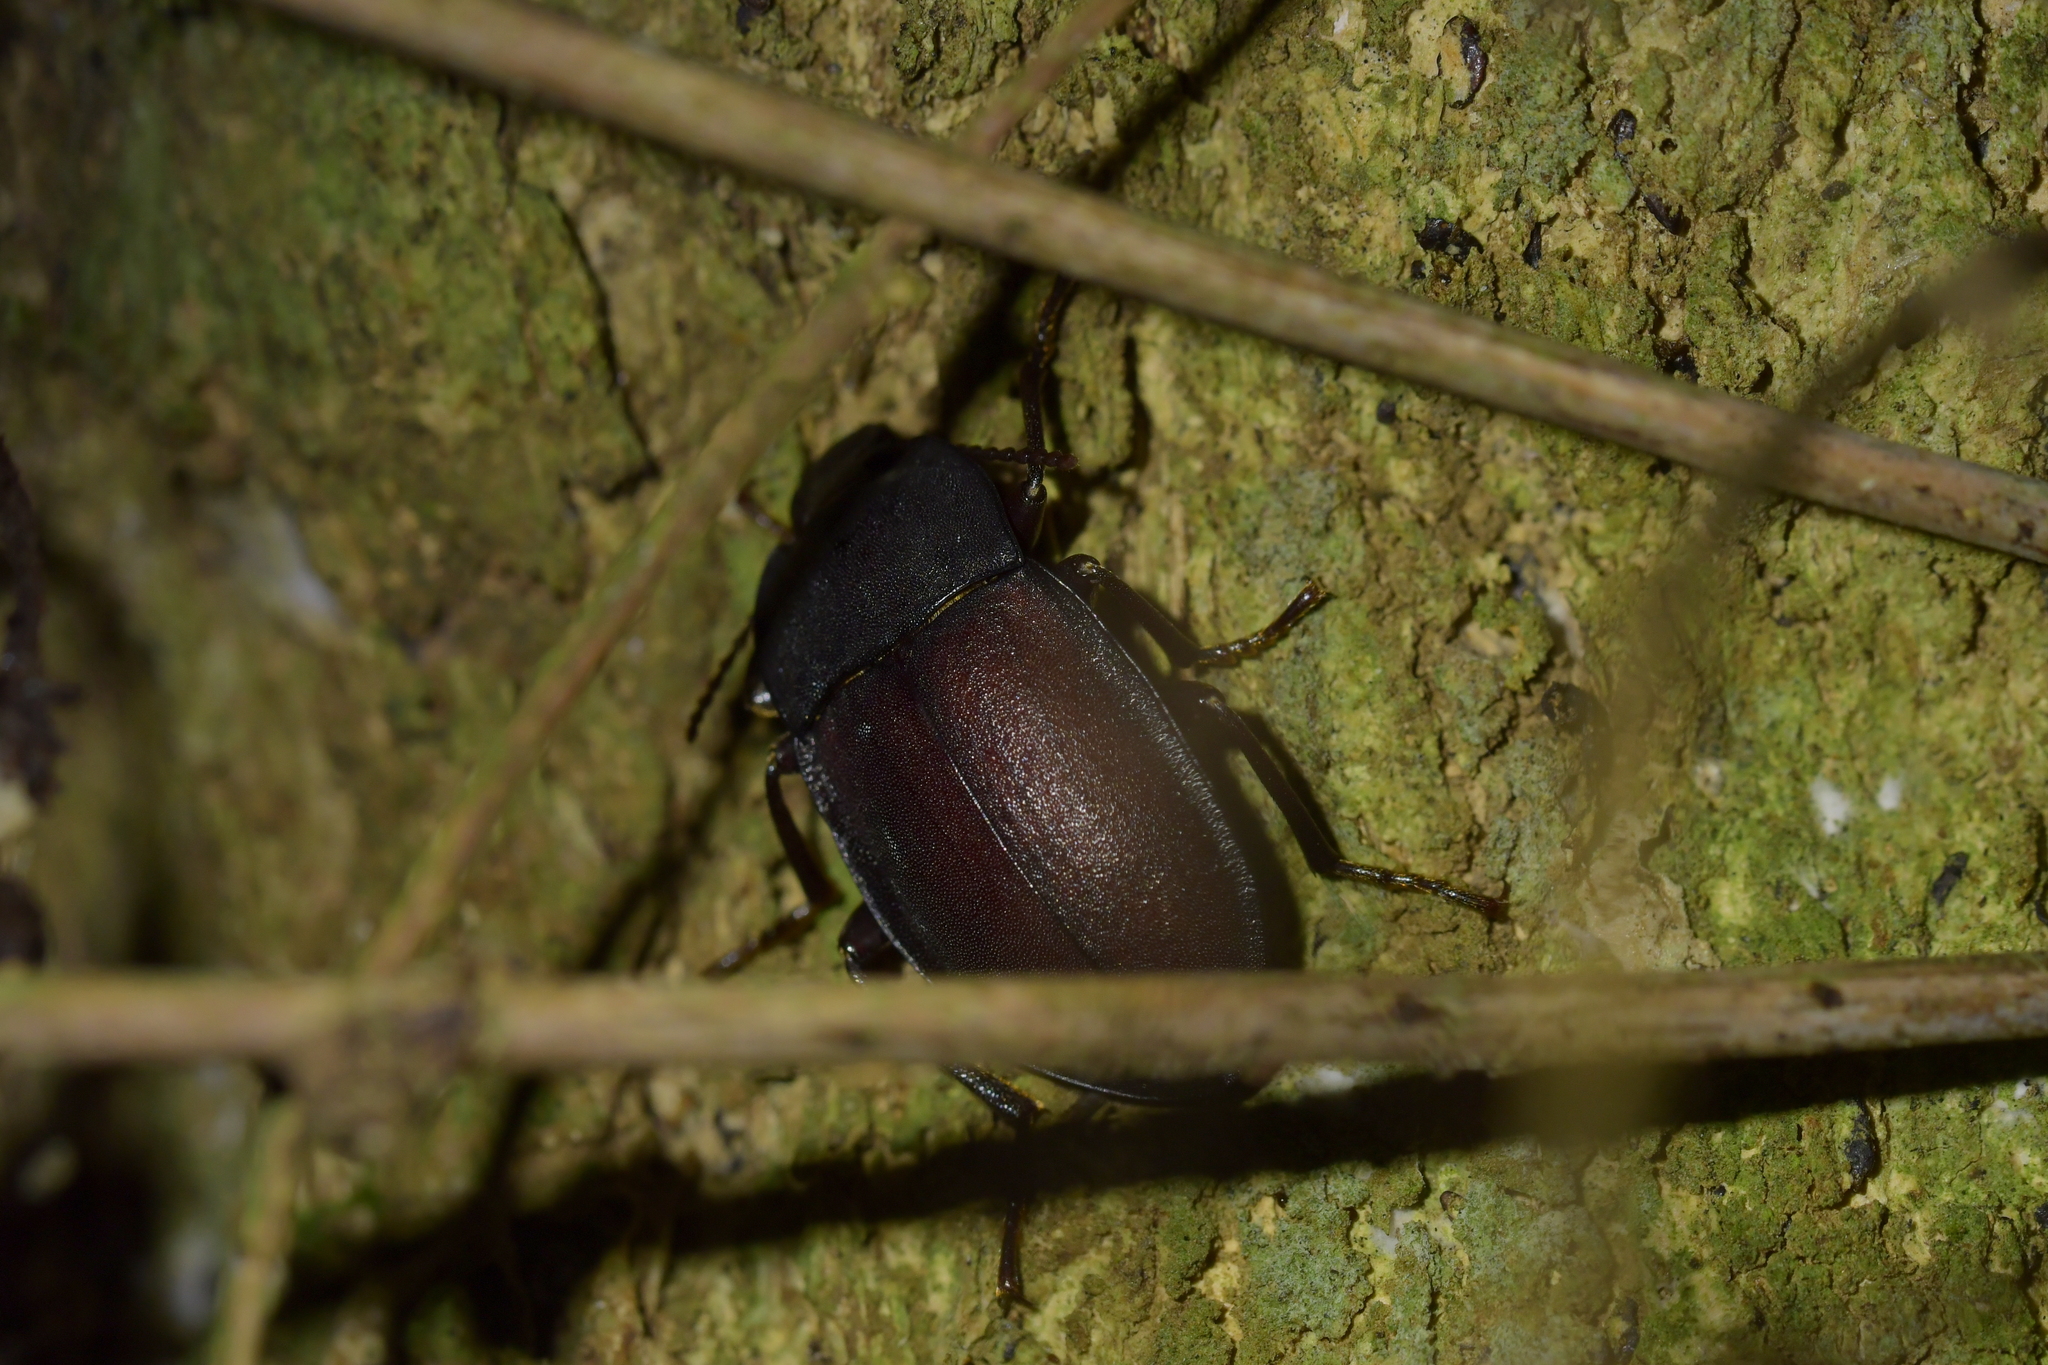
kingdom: Animalia
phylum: Arthropoda
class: Insecta
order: Coleoptera
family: Tenebrionidae
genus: Mimopeus
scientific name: Mimopeus
